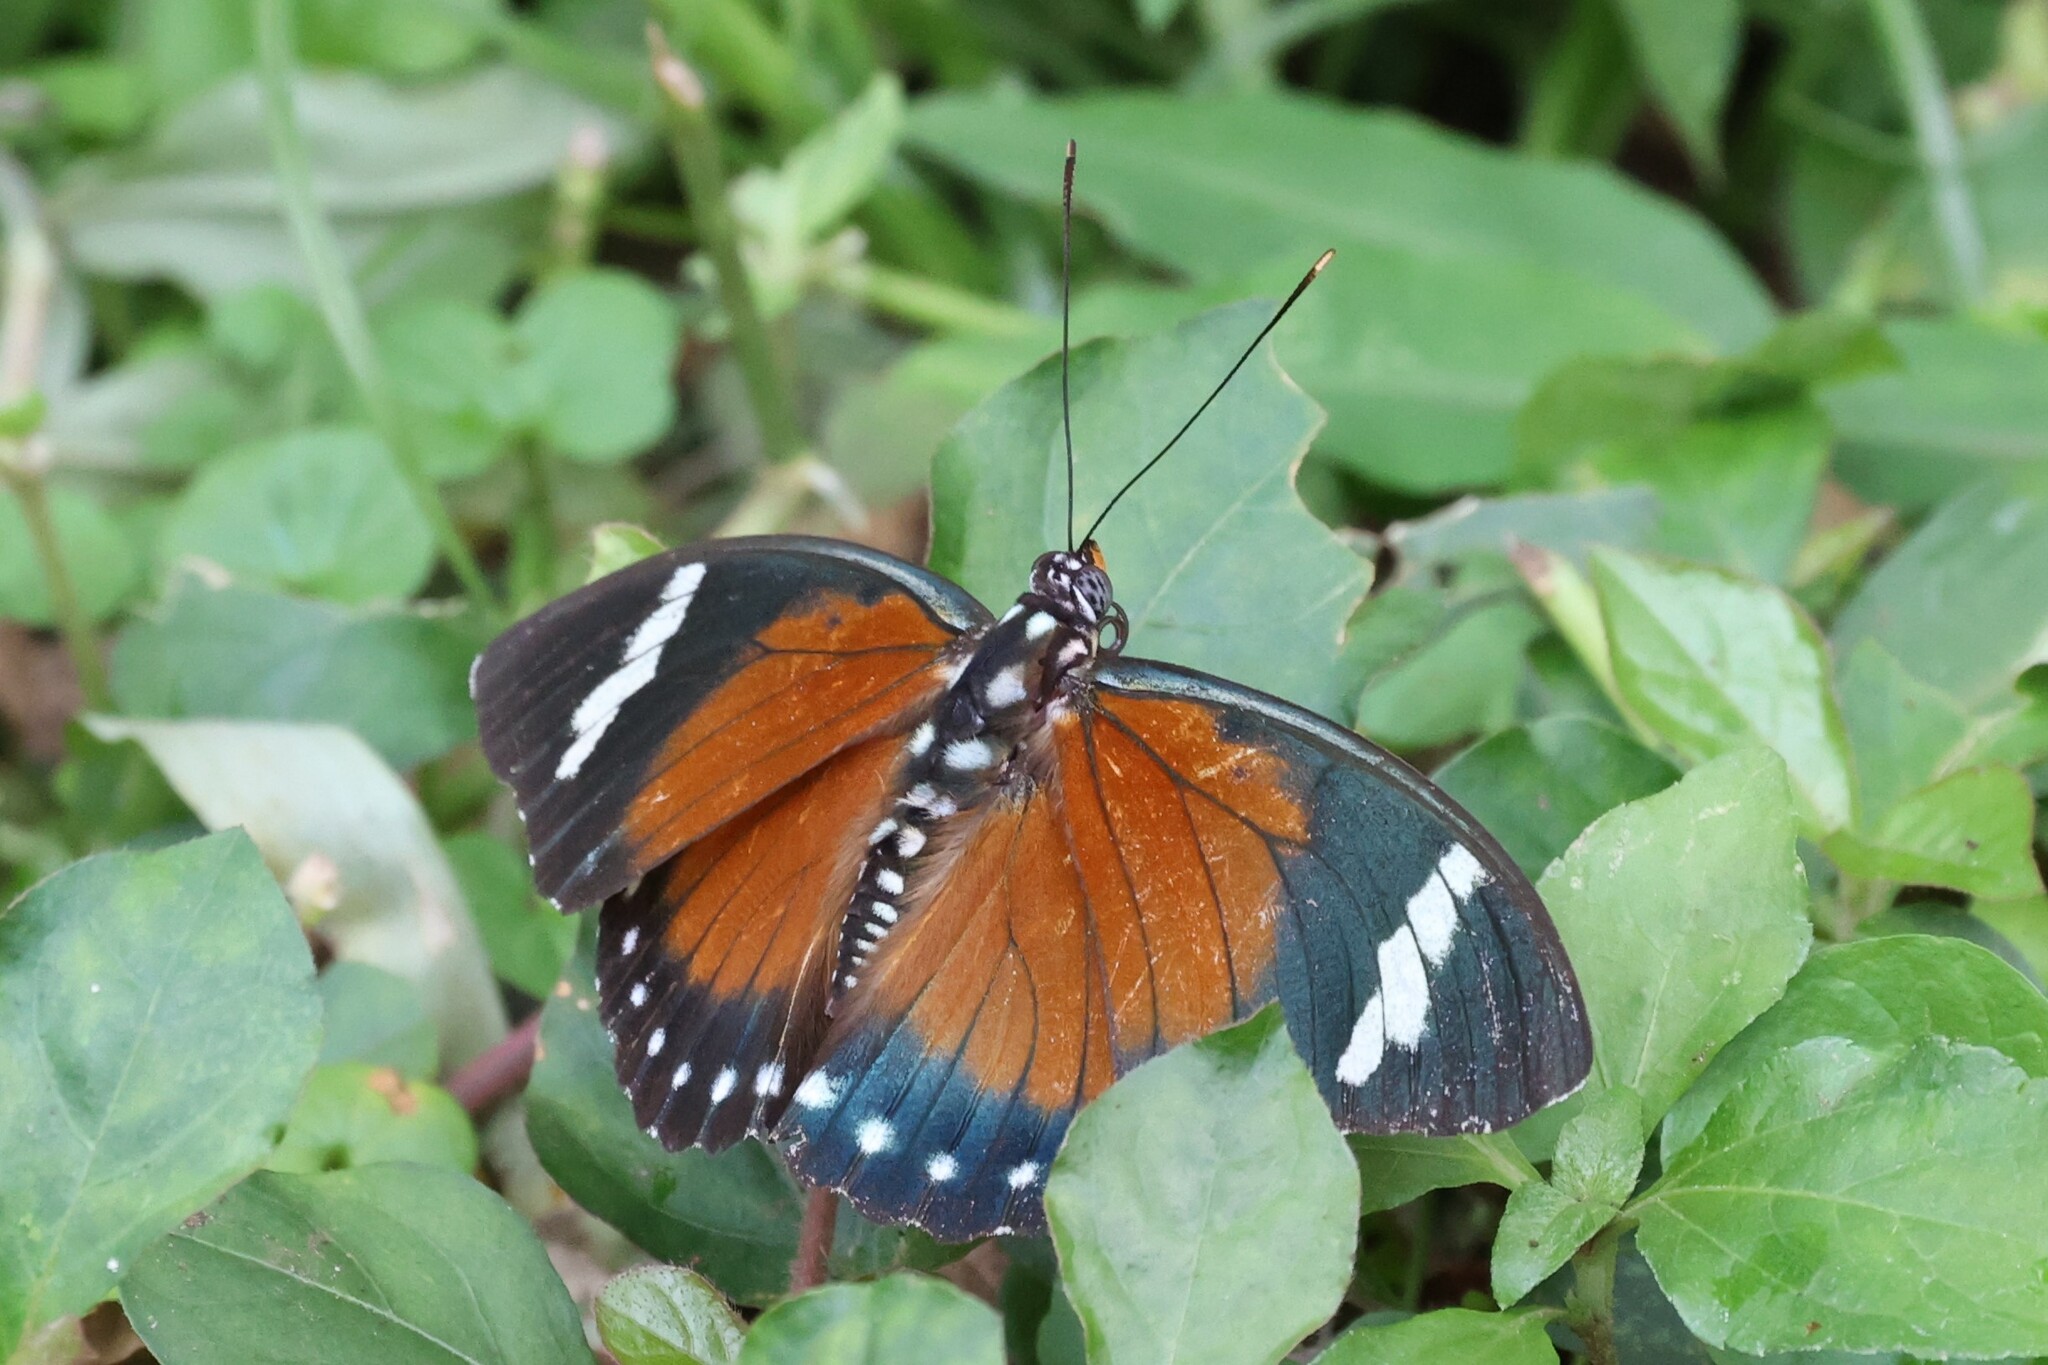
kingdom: Animalia
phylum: Arthropoda
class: Insecta
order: Lepidoptera
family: Nymphalidae
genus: Euphaedra
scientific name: Euphaedra rattrayi
